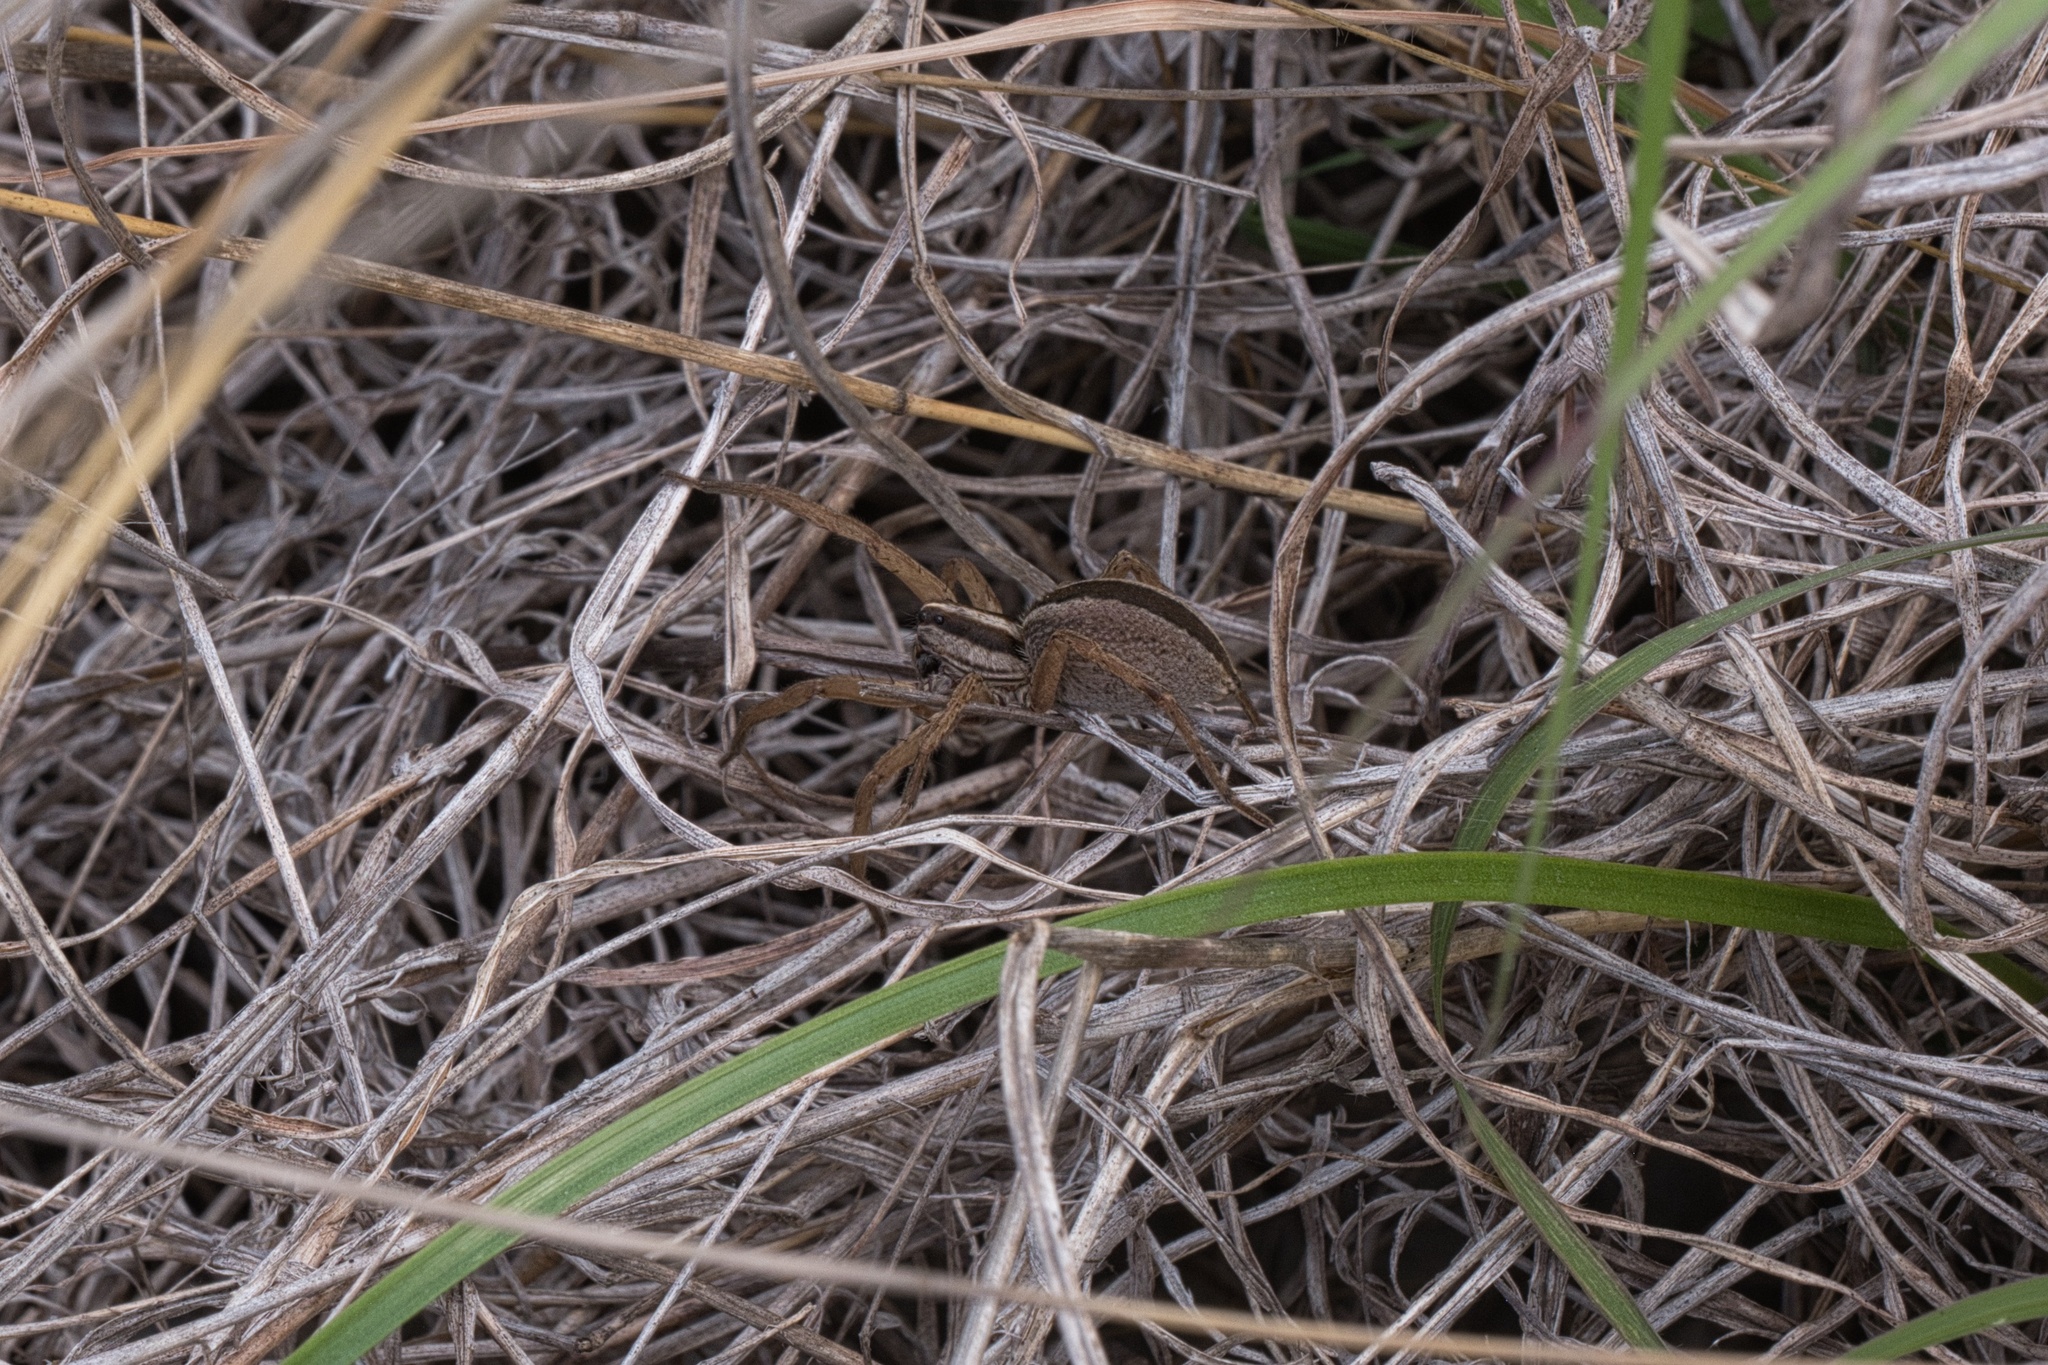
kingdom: Animalia
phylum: Arthropoda
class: Arachnida
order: Araneae
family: Lycosidae
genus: Rabidosa
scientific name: Rabidosa punctulata
